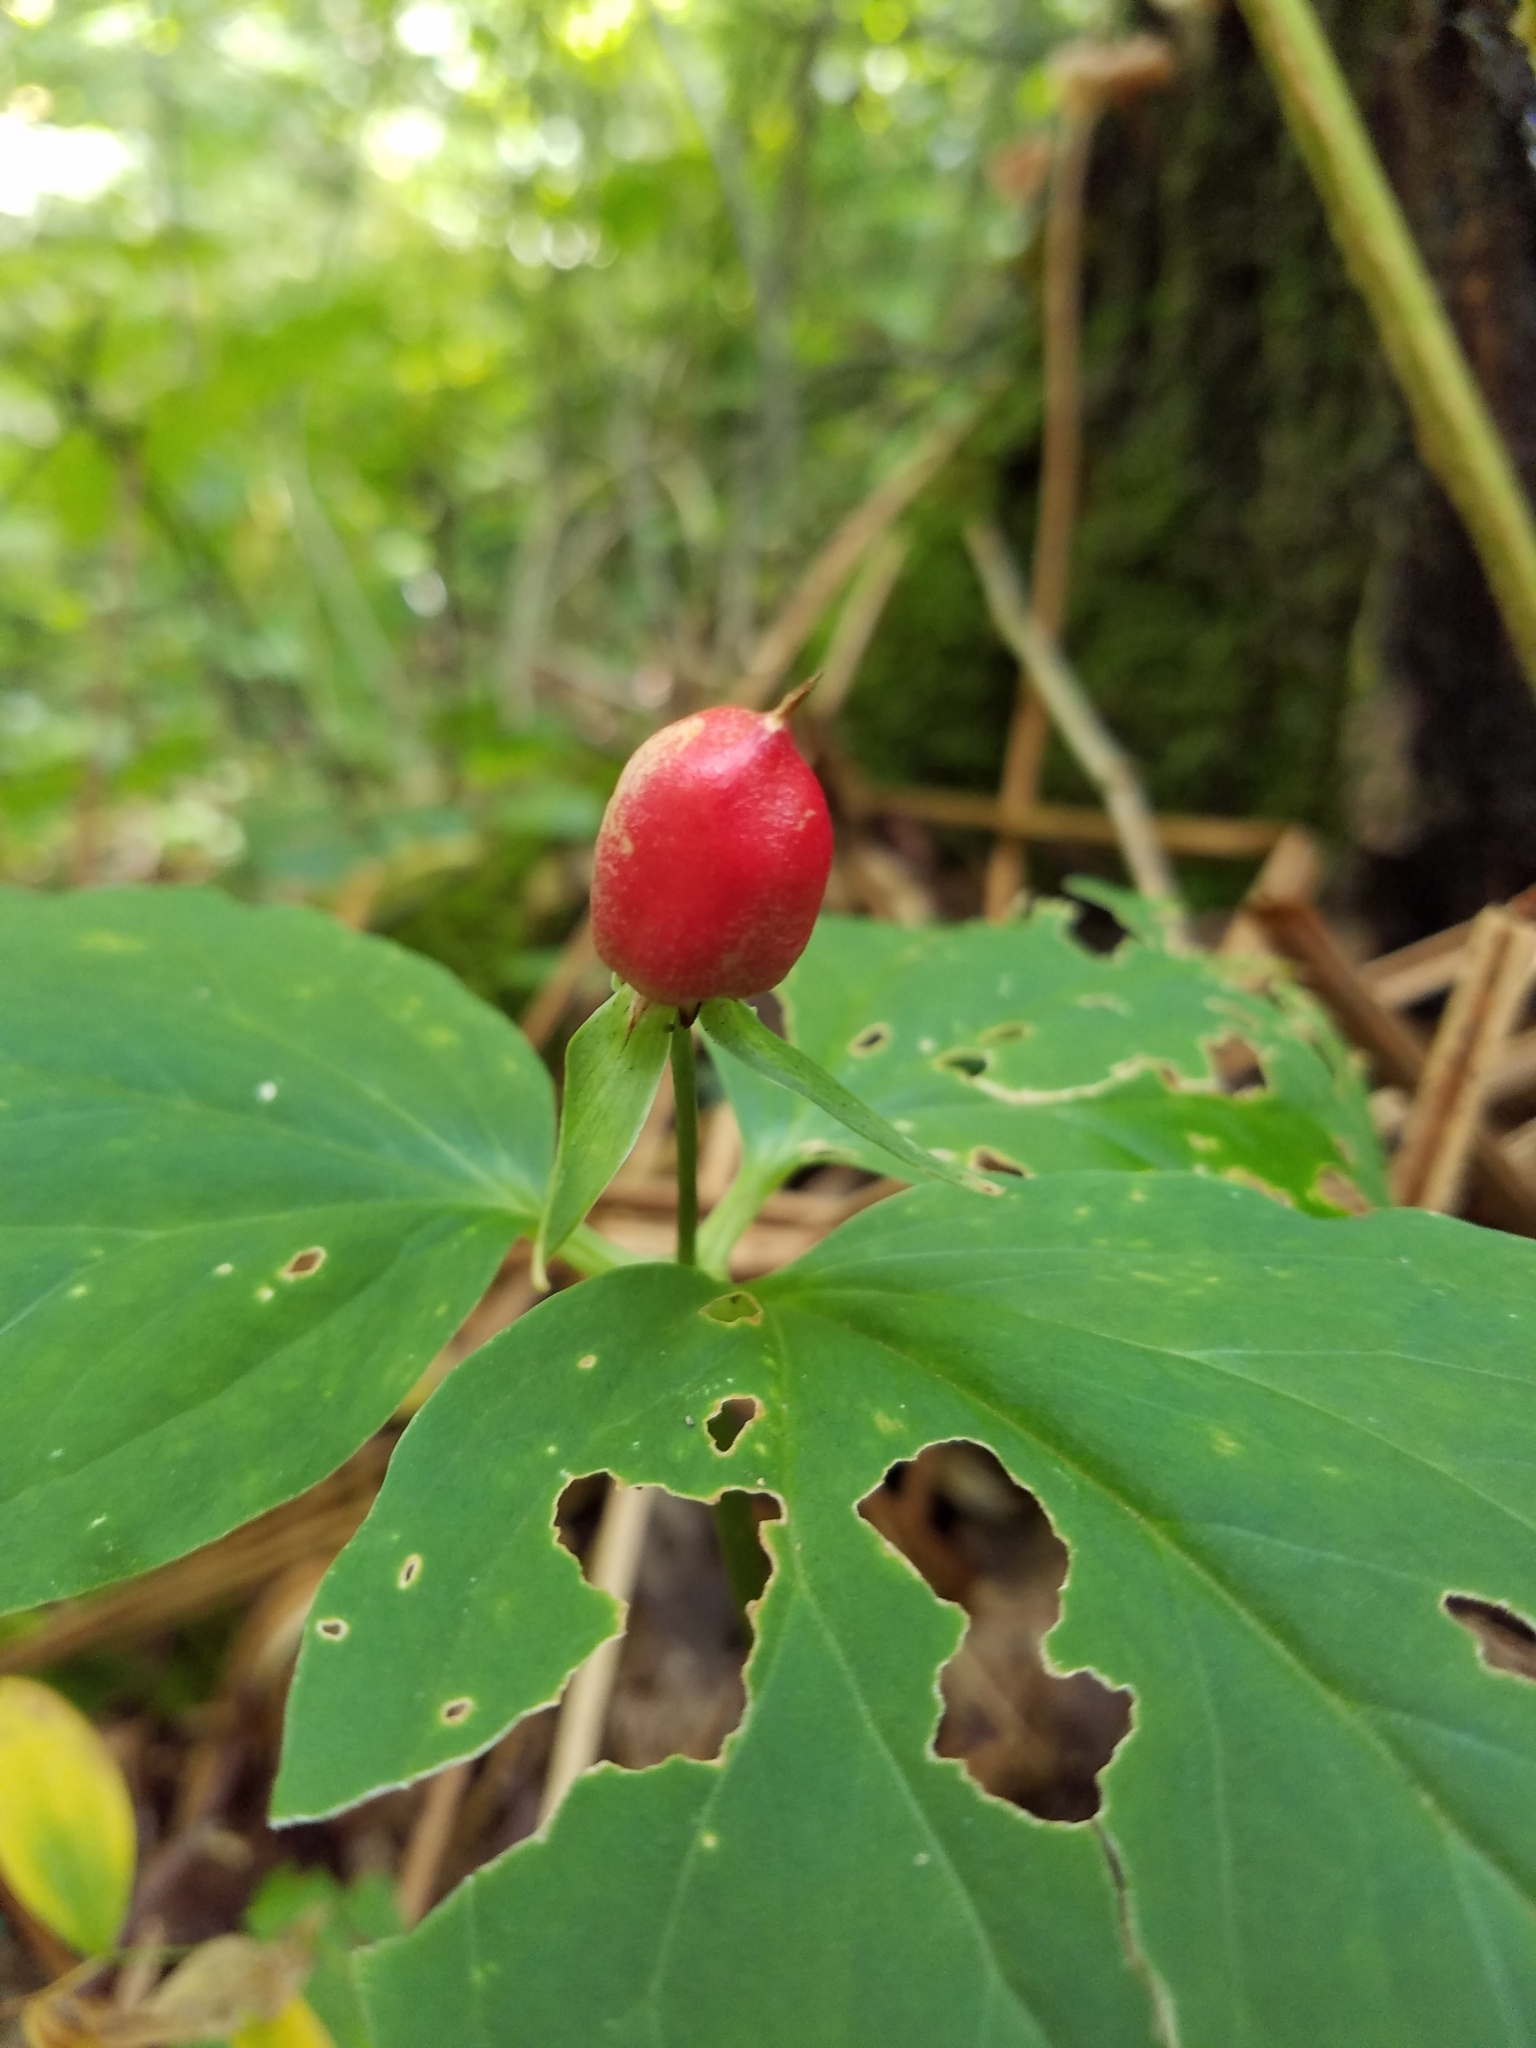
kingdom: Plantae
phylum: Tracheophyta
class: Liliopsida
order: Liliales
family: Melanthiaceae
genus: Trillium
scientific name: Trillium undulatum
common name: Paint trillium
